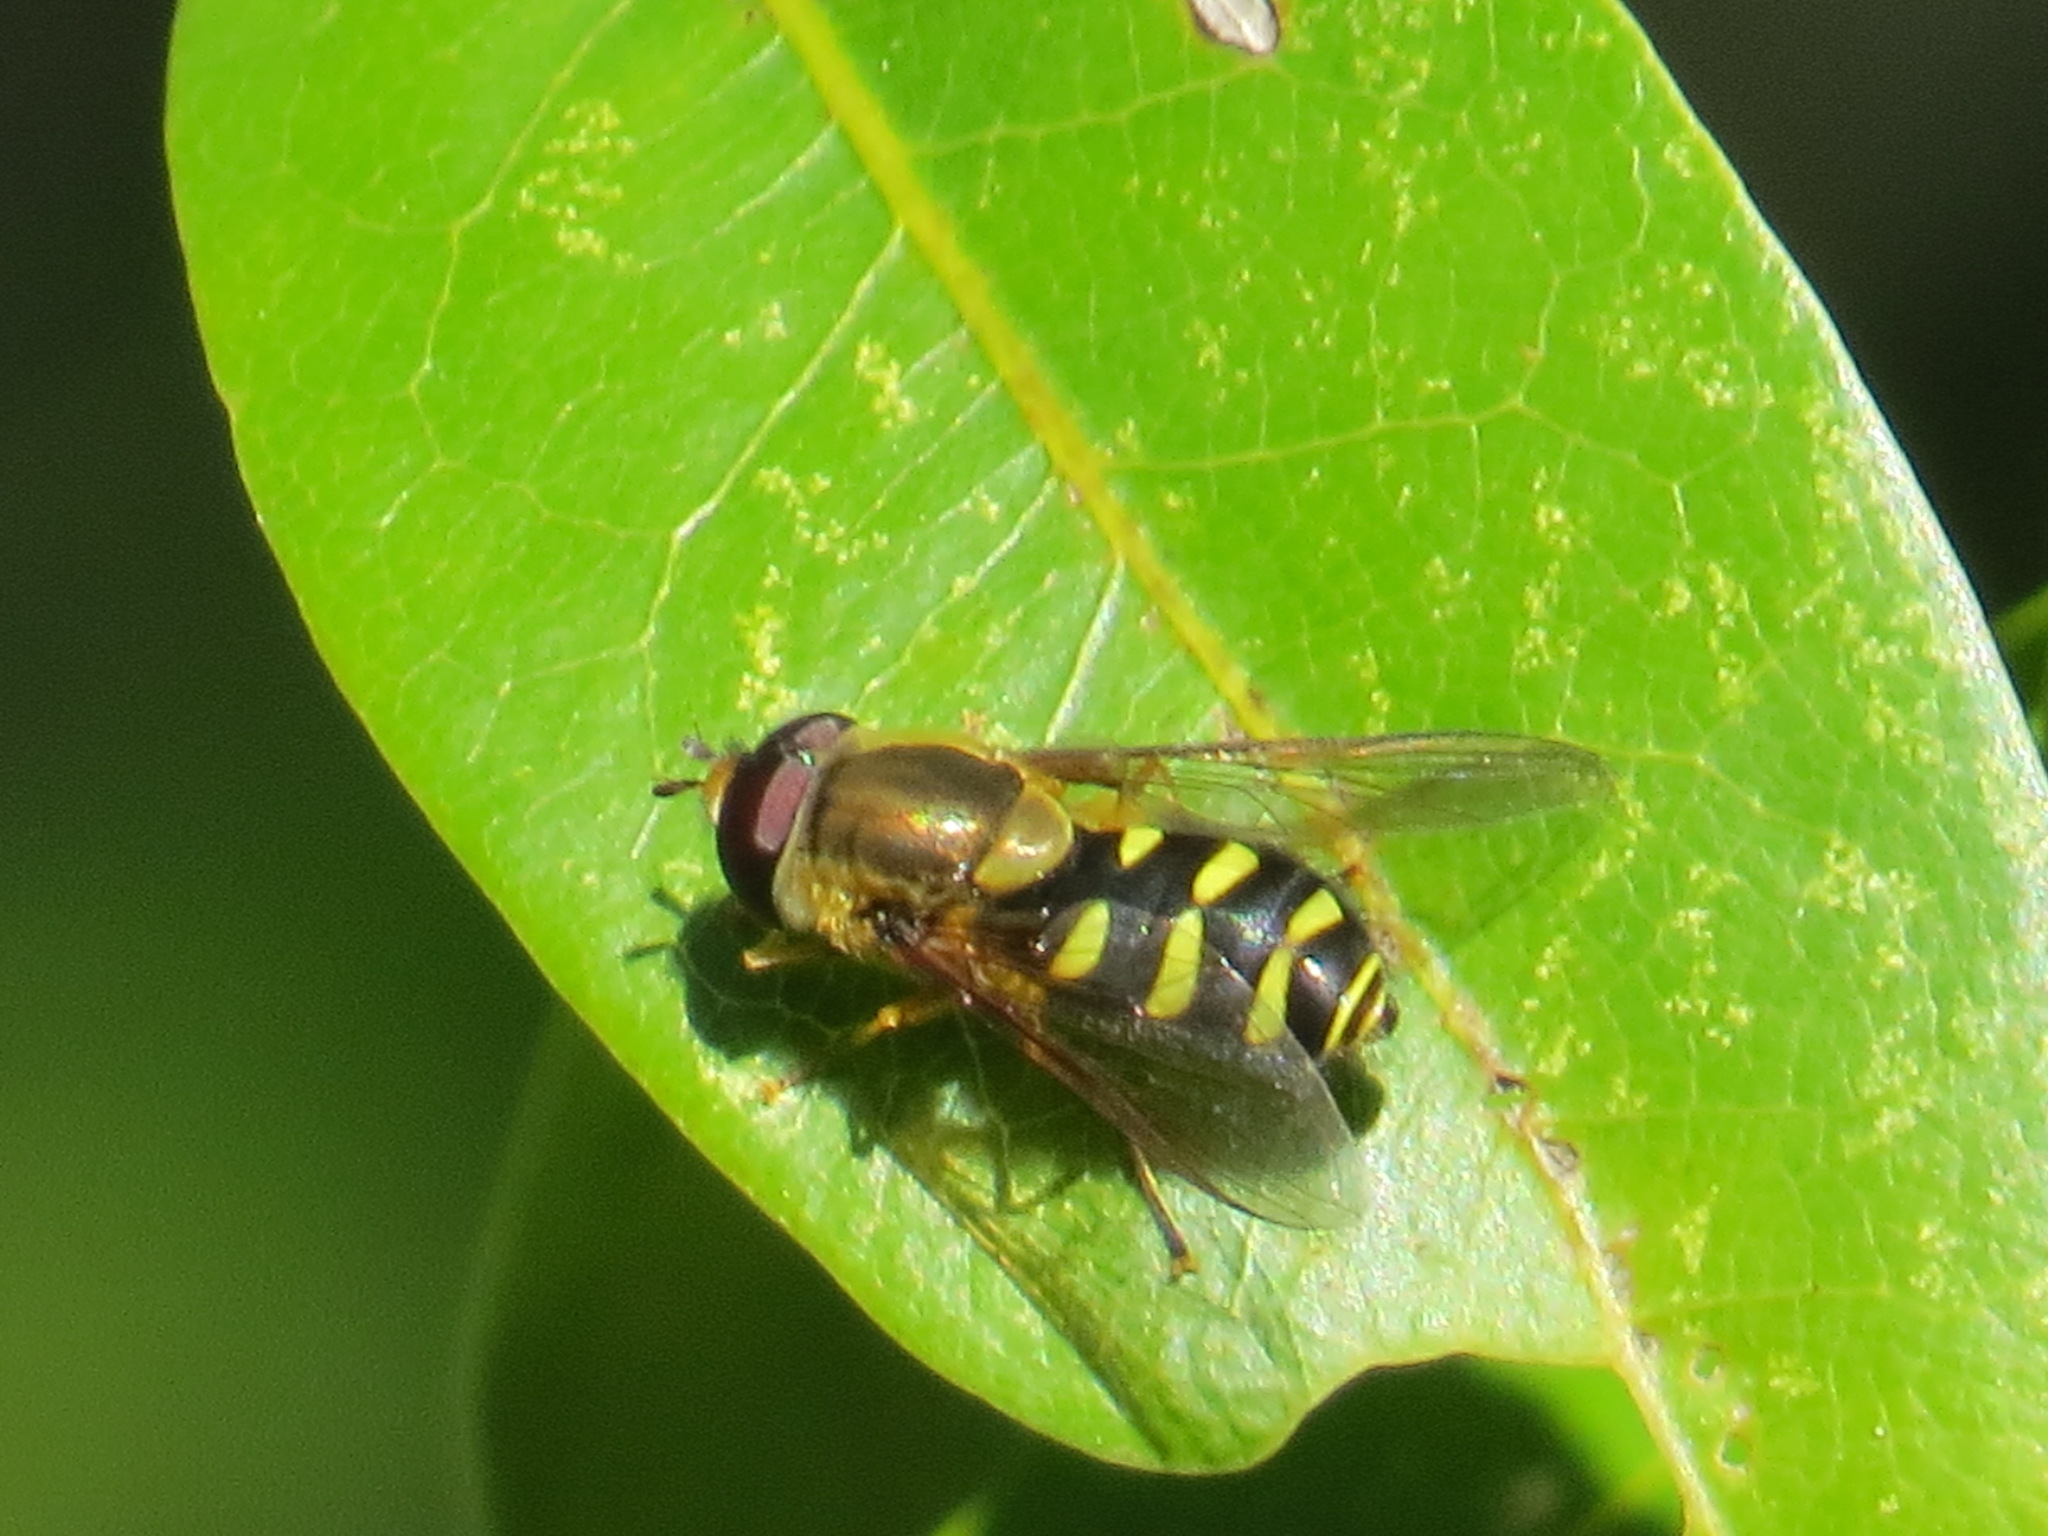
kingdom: Animalia
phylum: Arthropoda
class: Insecta
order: Diptera
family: Syrphidae
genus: Syrphus
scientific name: Syrphus opinator
